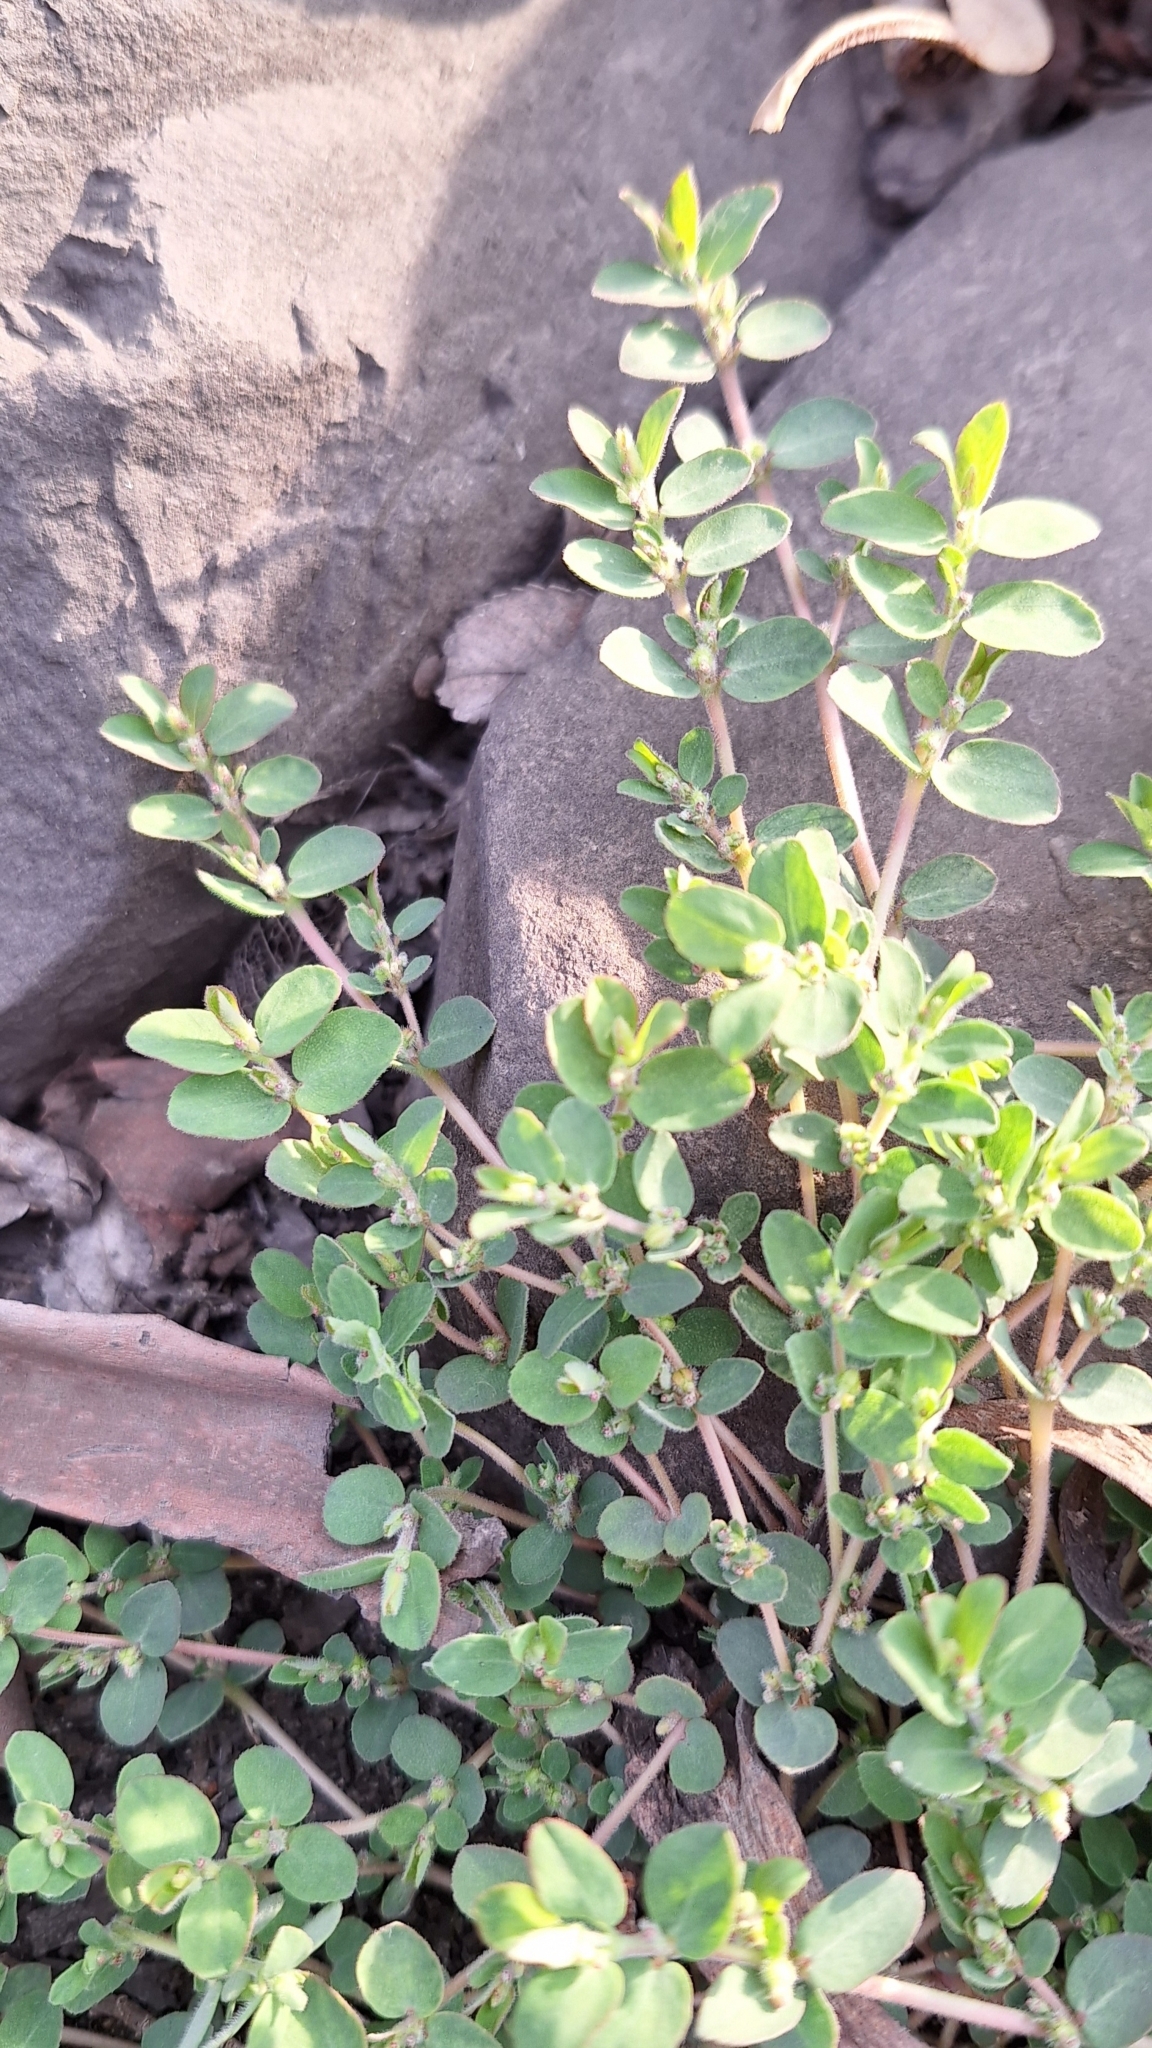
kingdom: Plantae
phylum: Tracheophyta
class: Magnoliopsida
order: Malpighiales
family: Euphorbiaceae
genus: Euphorbia
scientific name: Euphorbia prostrata
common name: Prostrate sandmat
